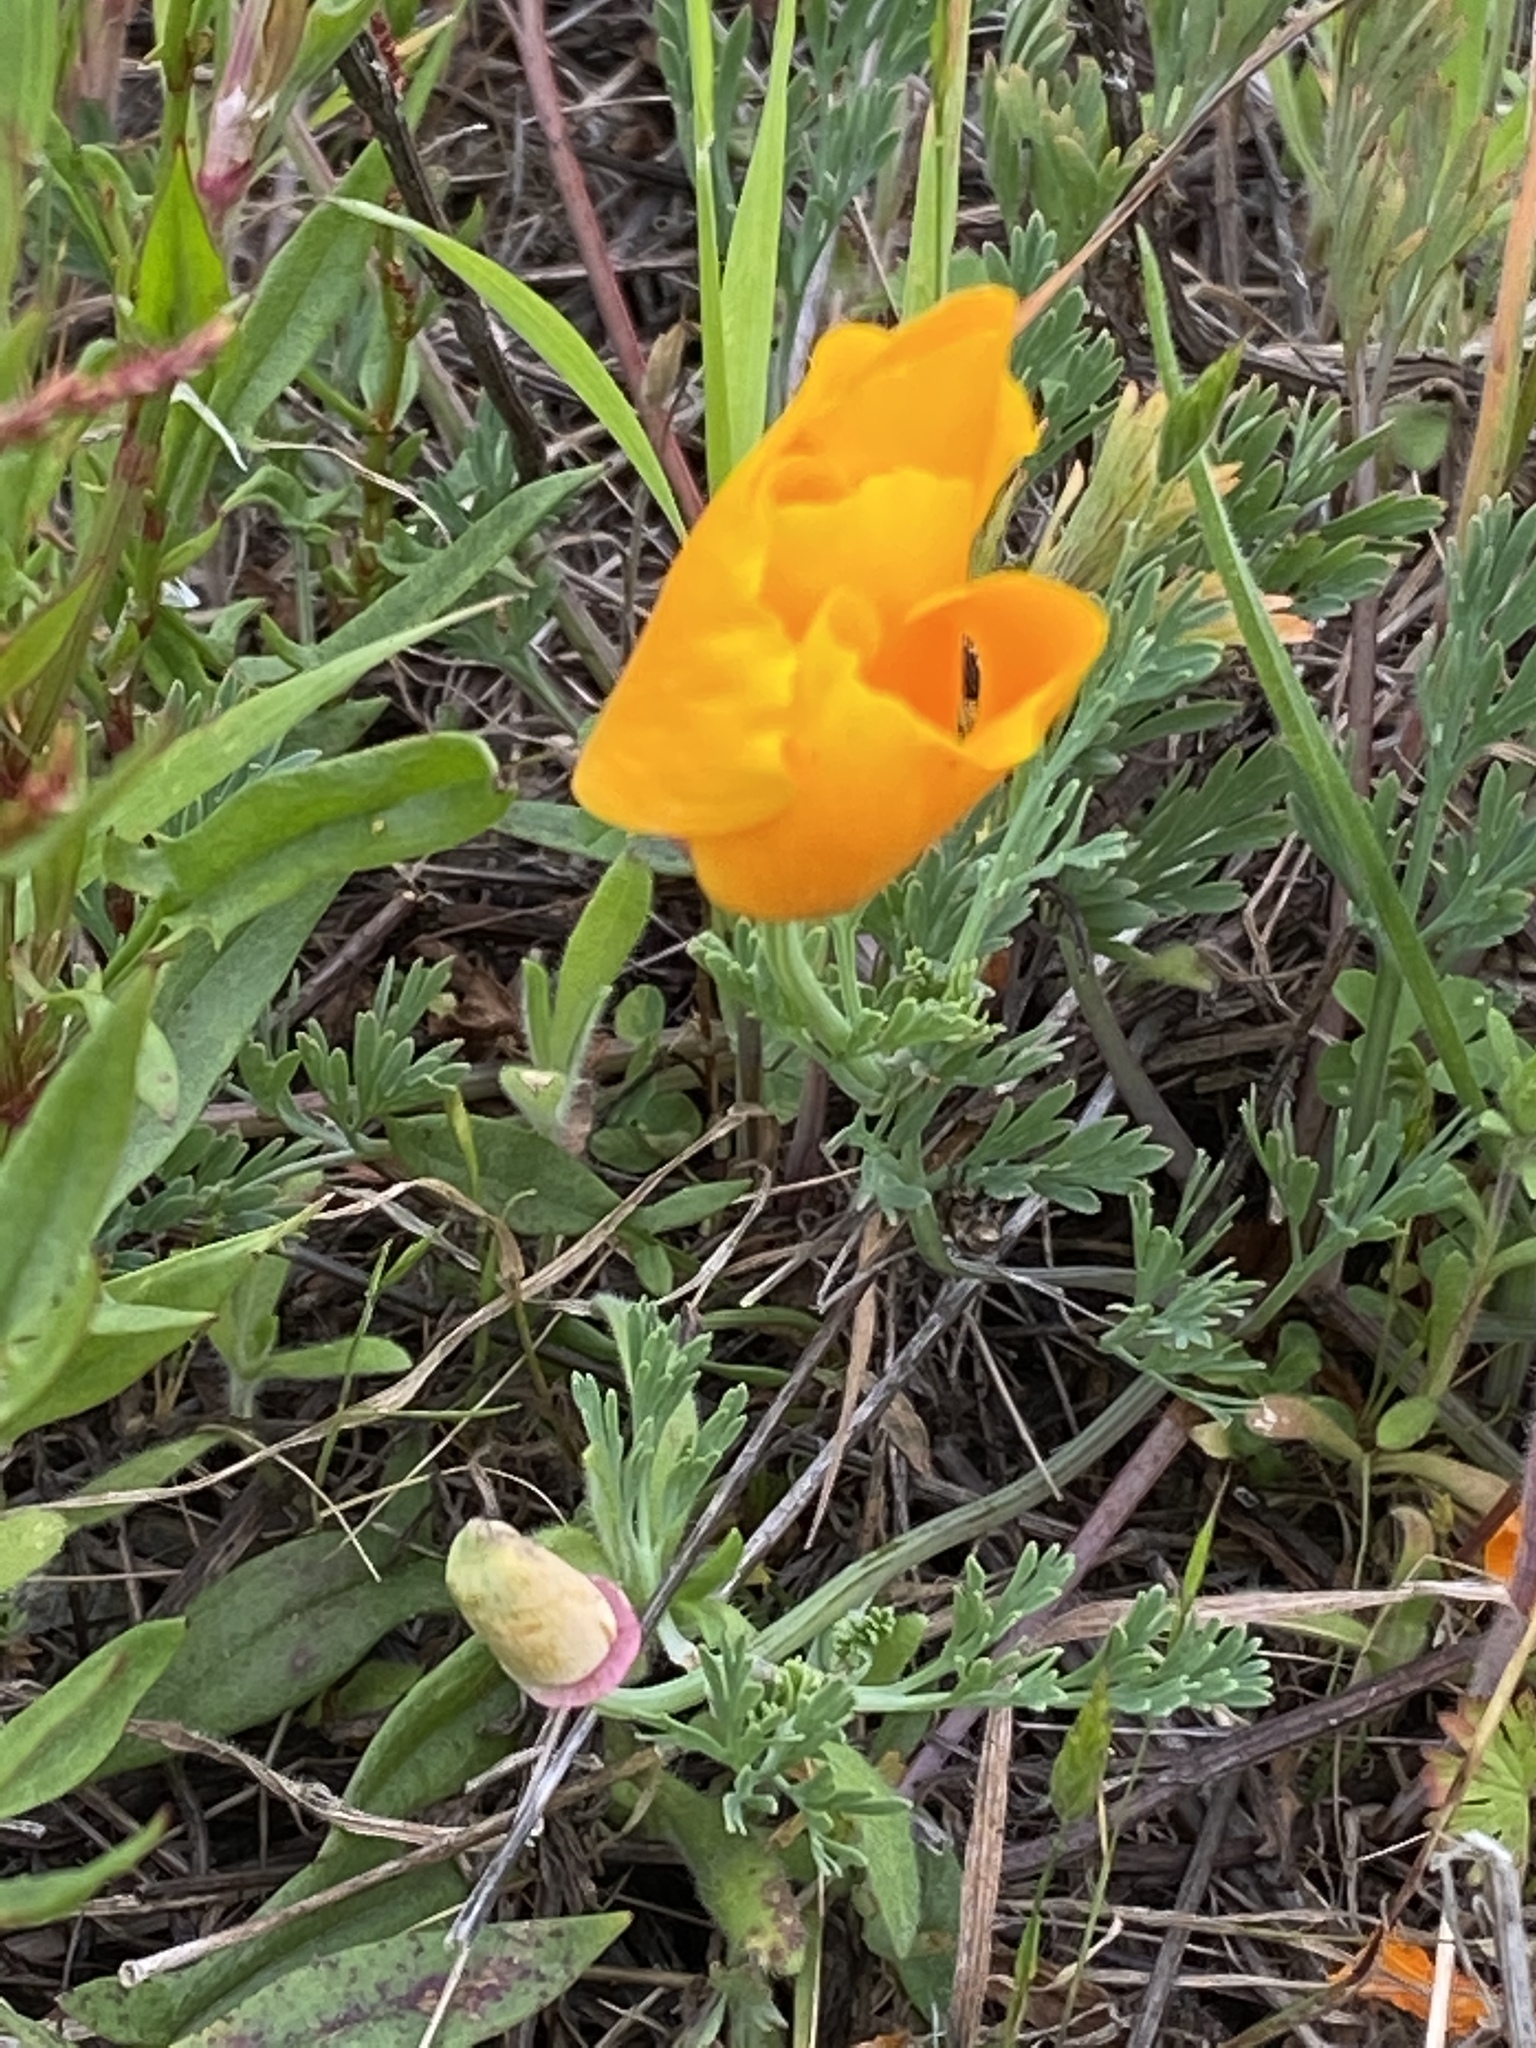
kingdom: Plantae
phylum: Tracheophyta
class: Magnoliopsida
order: Ranunculales
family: Papaveraceae
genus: Eschscholzia
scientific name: Eschscholzia californica
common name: California poppy
